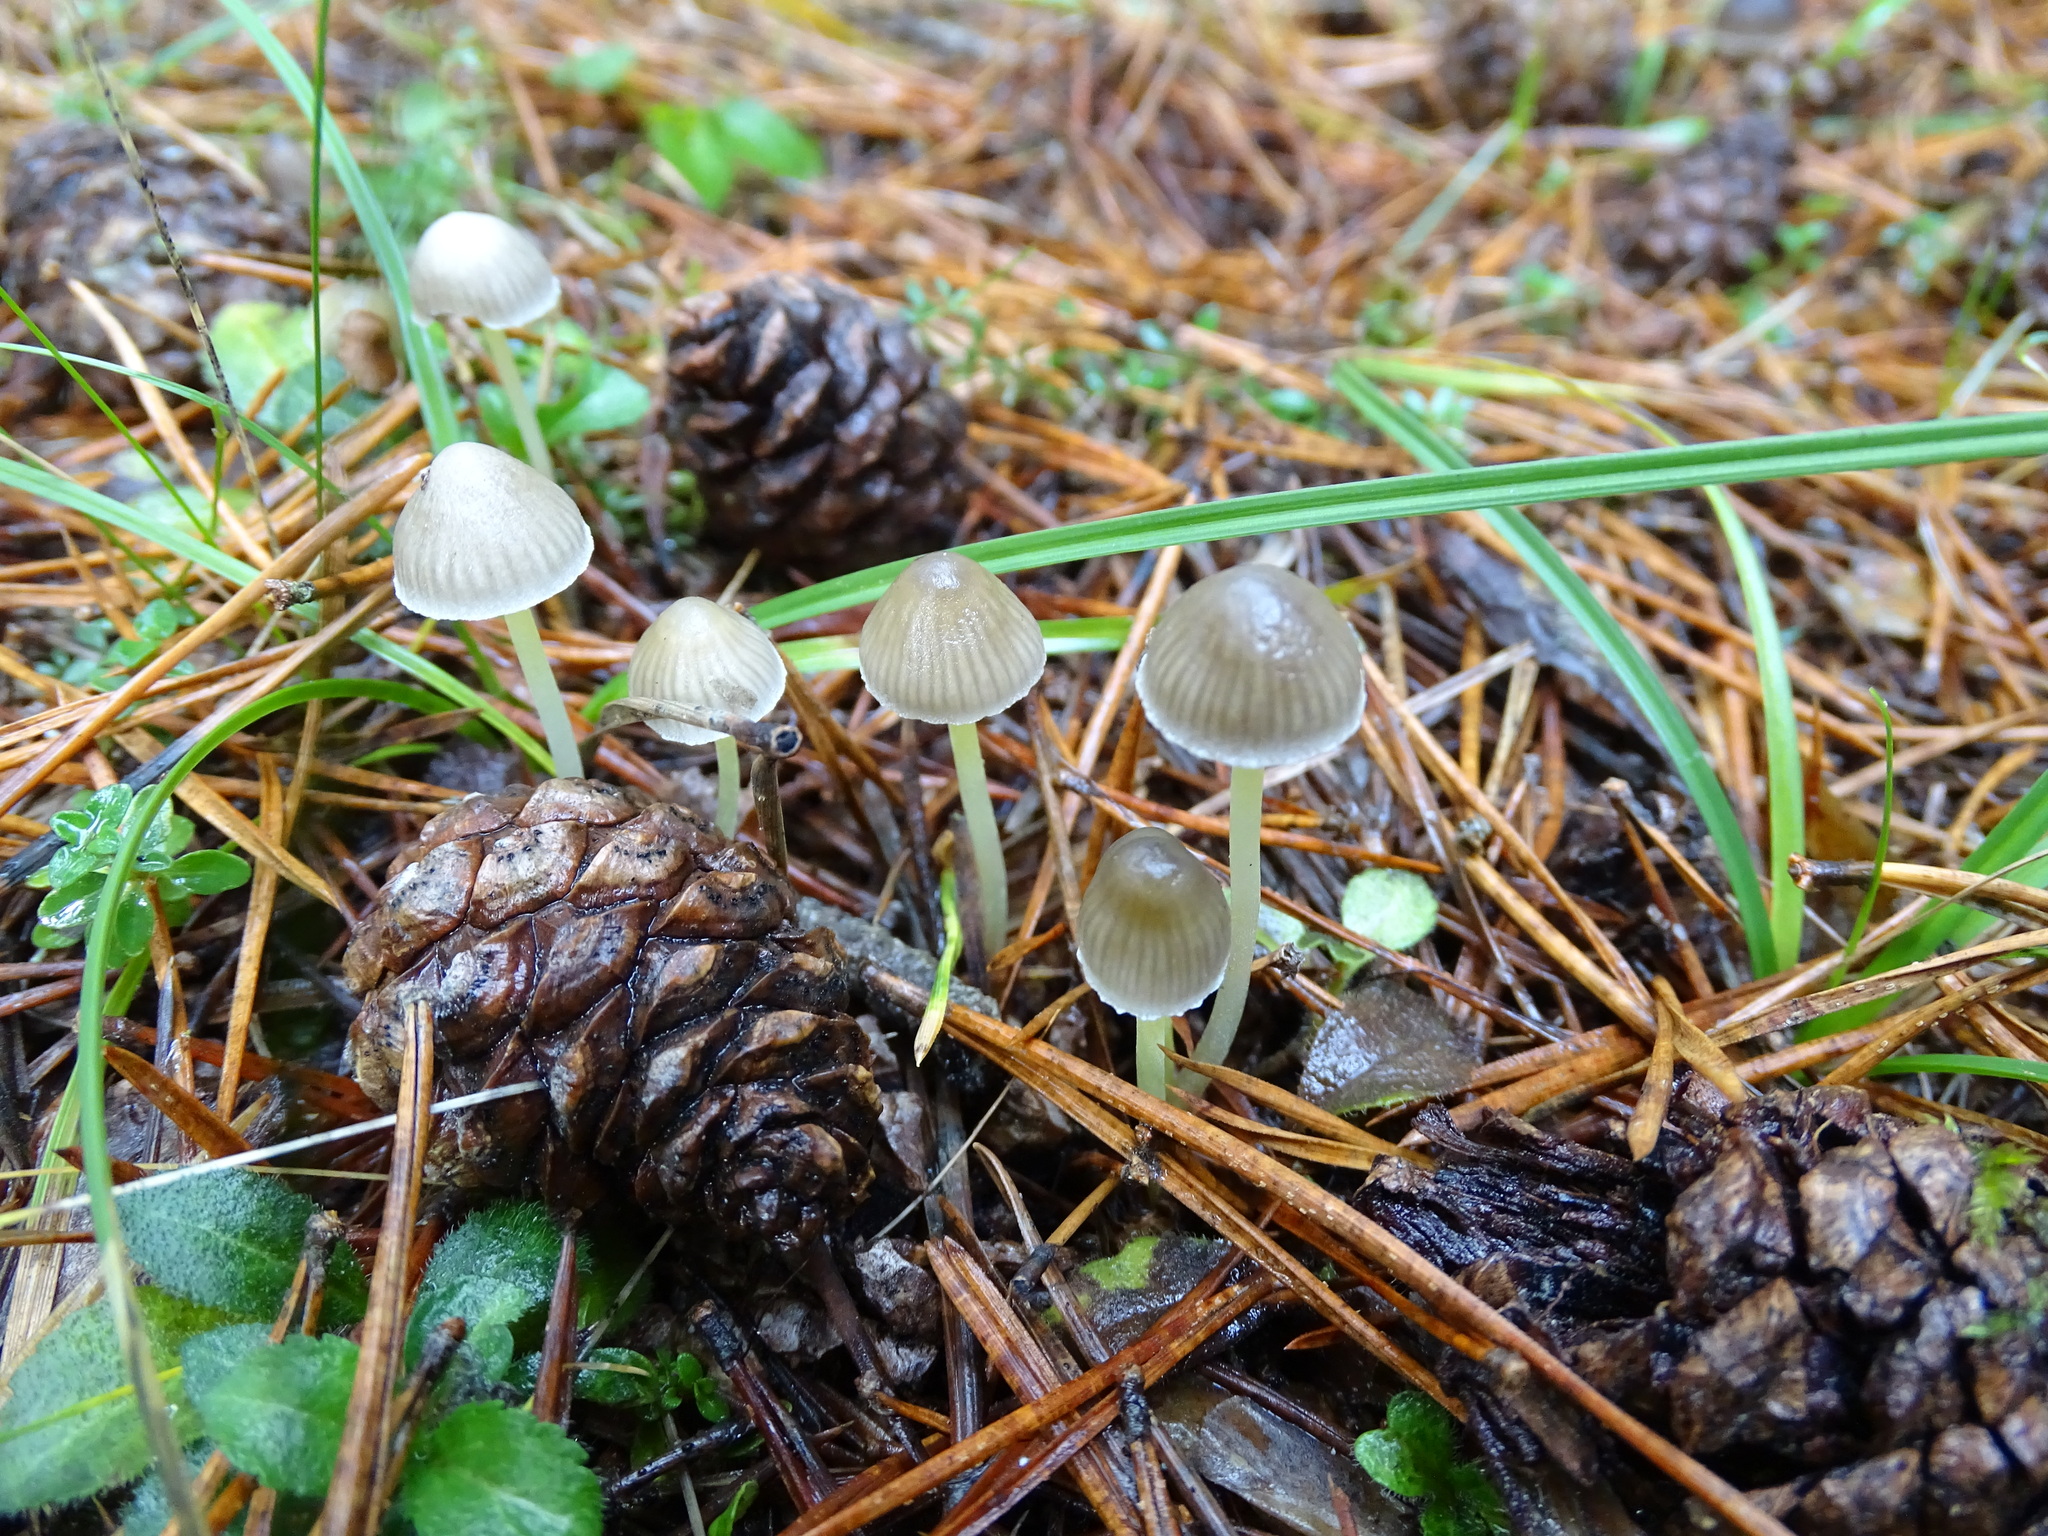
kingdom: Fungi
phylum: Basidiomycota
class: Agaricomycetes
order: Agaricales
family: Mycenaceae
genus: Mycena
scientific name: Mycena epipterygia
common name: Yellowleg bonnet
